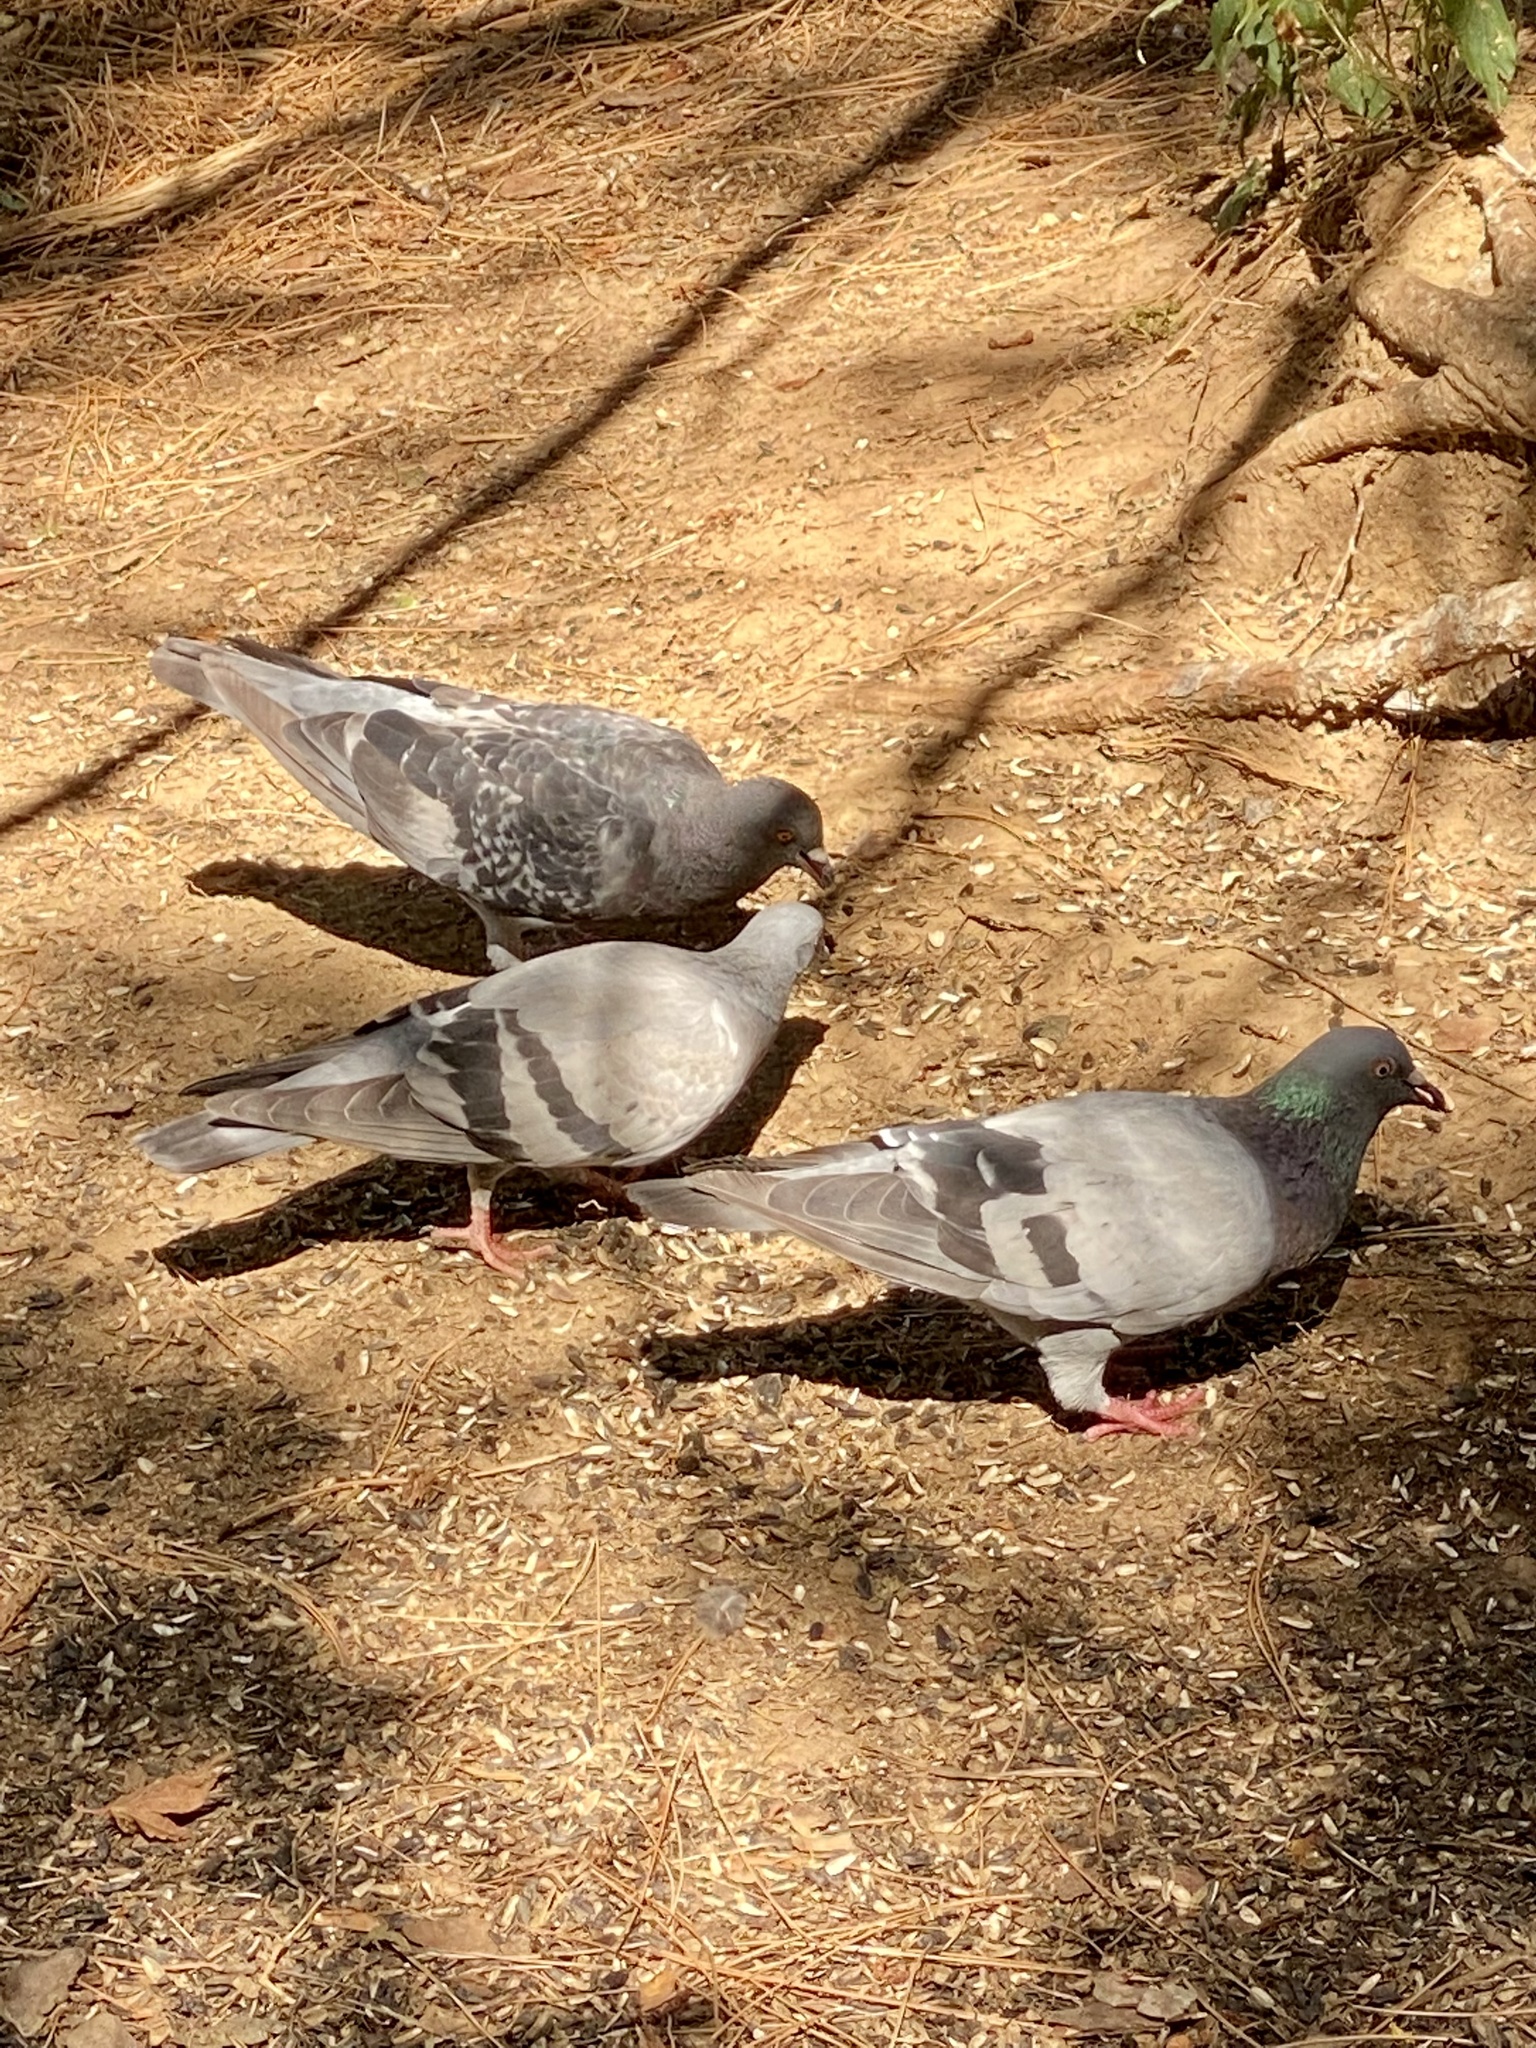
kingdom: Animalia
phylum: Chordata
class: Aves
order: Columbiformes
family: Columbidae
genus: Columba
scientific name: Columba livia
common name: Rock pigeon
